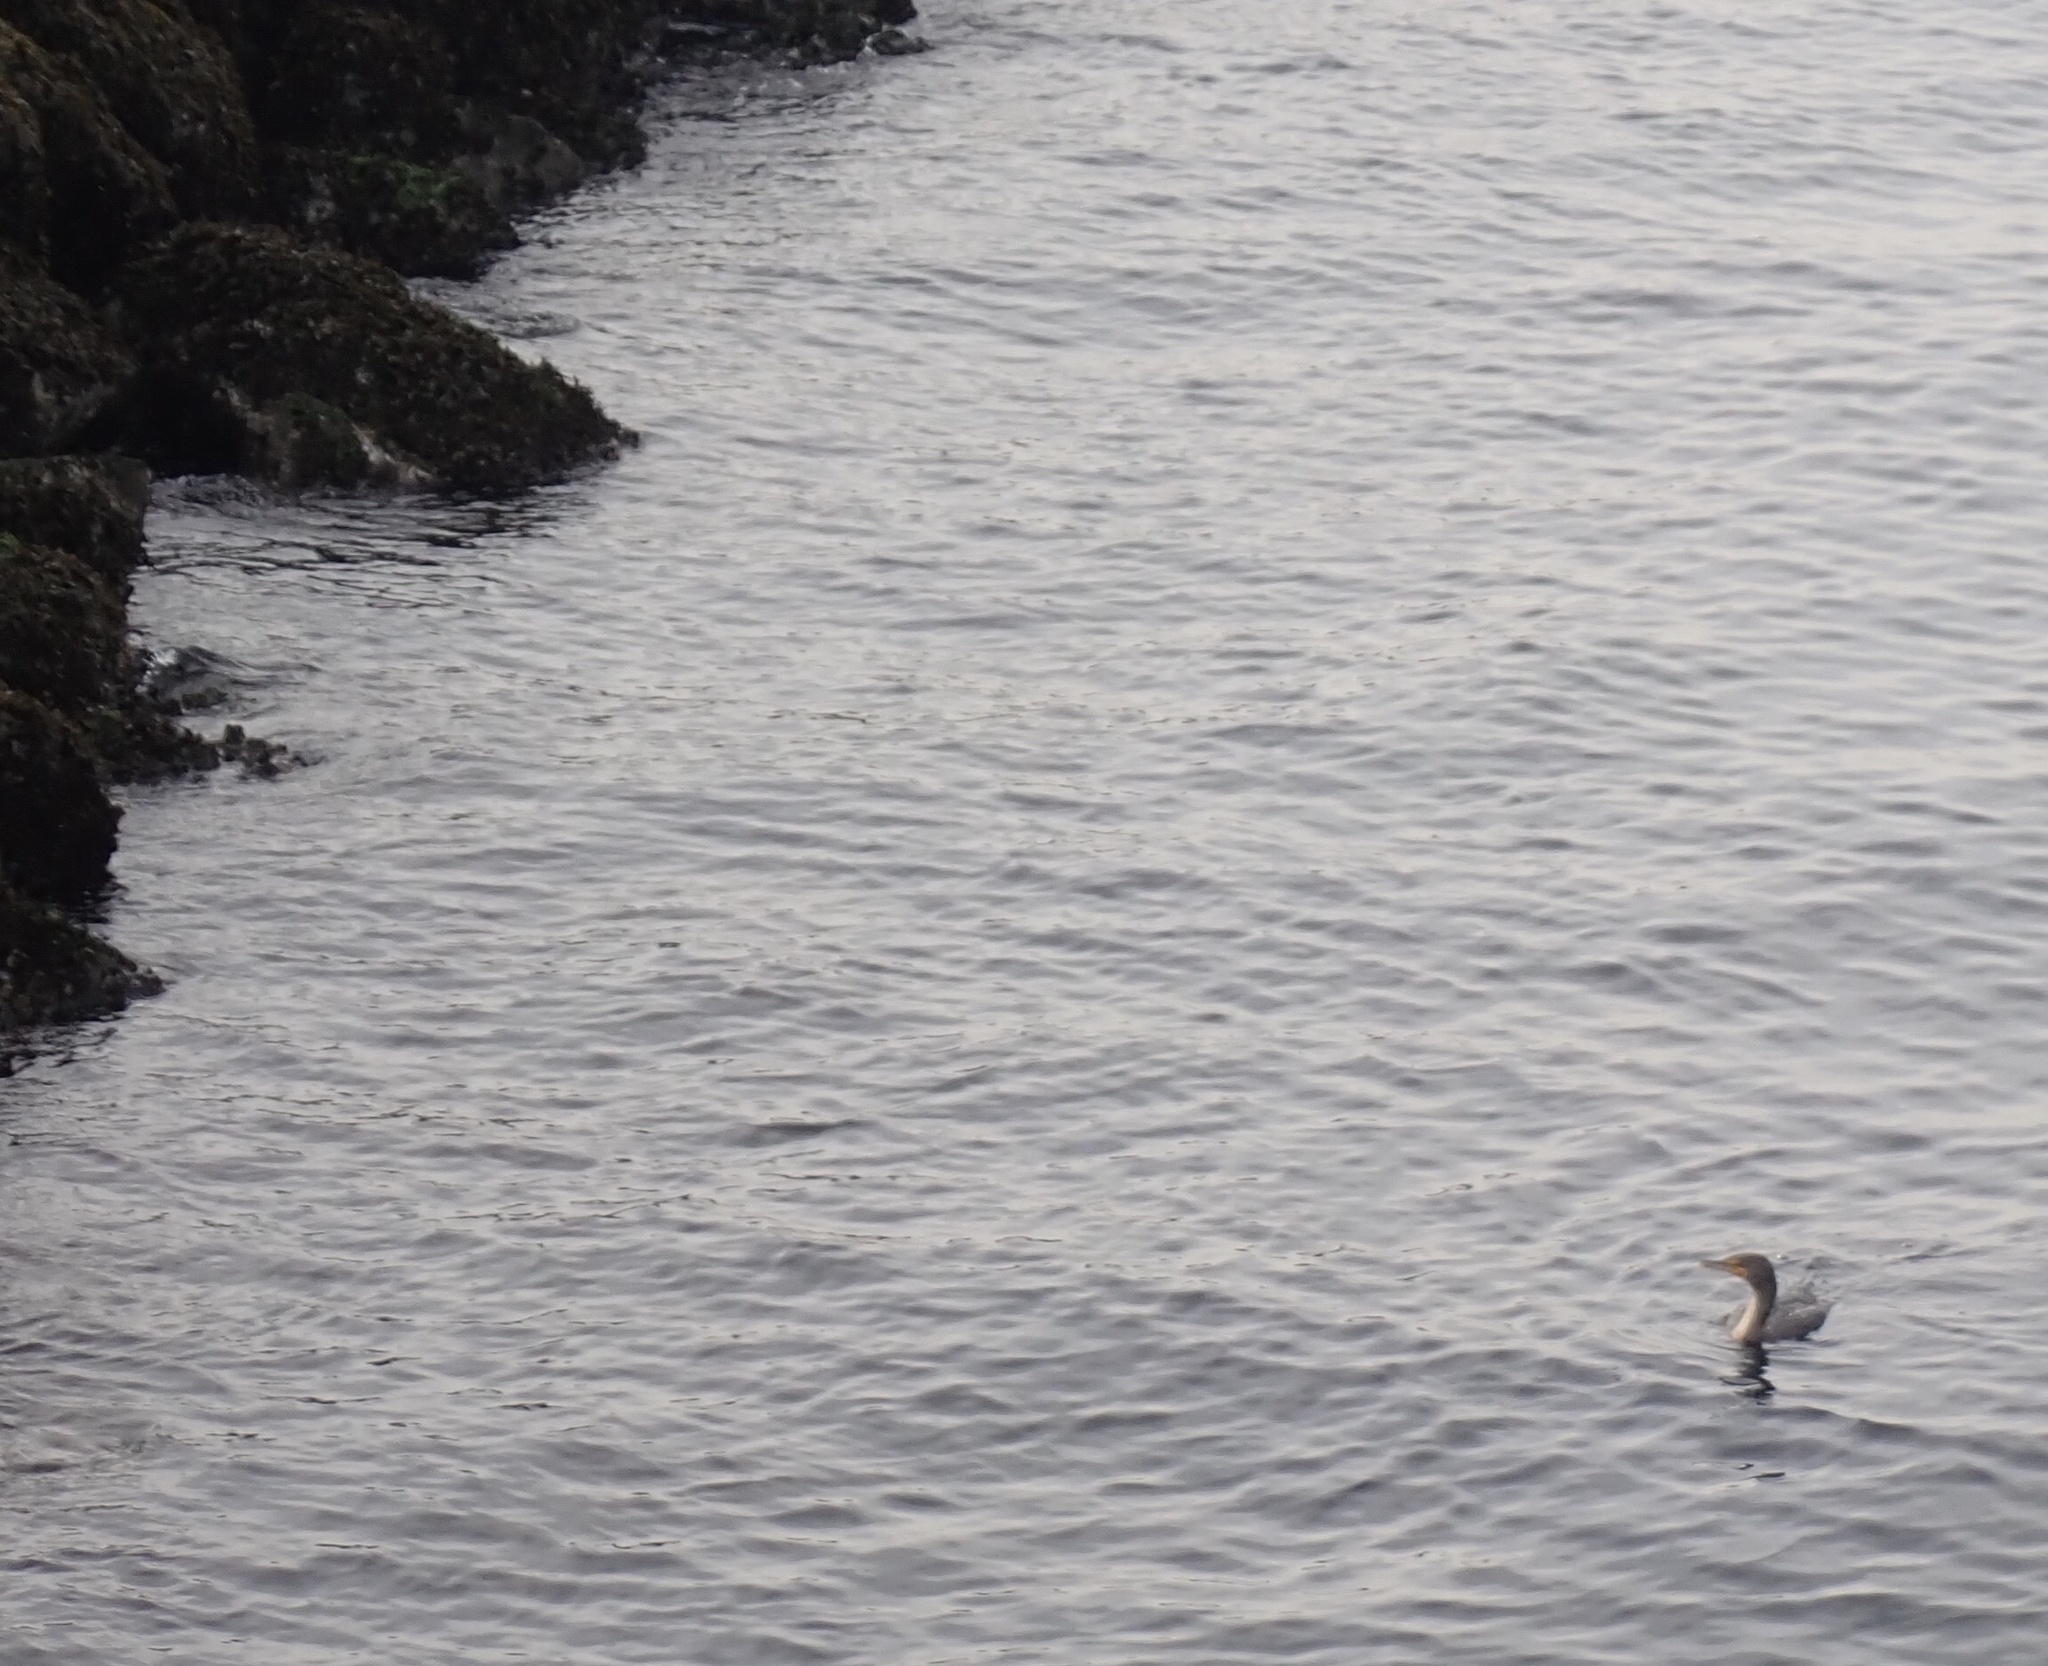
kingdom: Animalia
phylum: Chordata
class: Aves
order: Suliformes
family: Phalacrocoracidae
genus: Phalacrocorax
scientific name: Phalacrocorax auritus
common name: Double-crested cormorant
